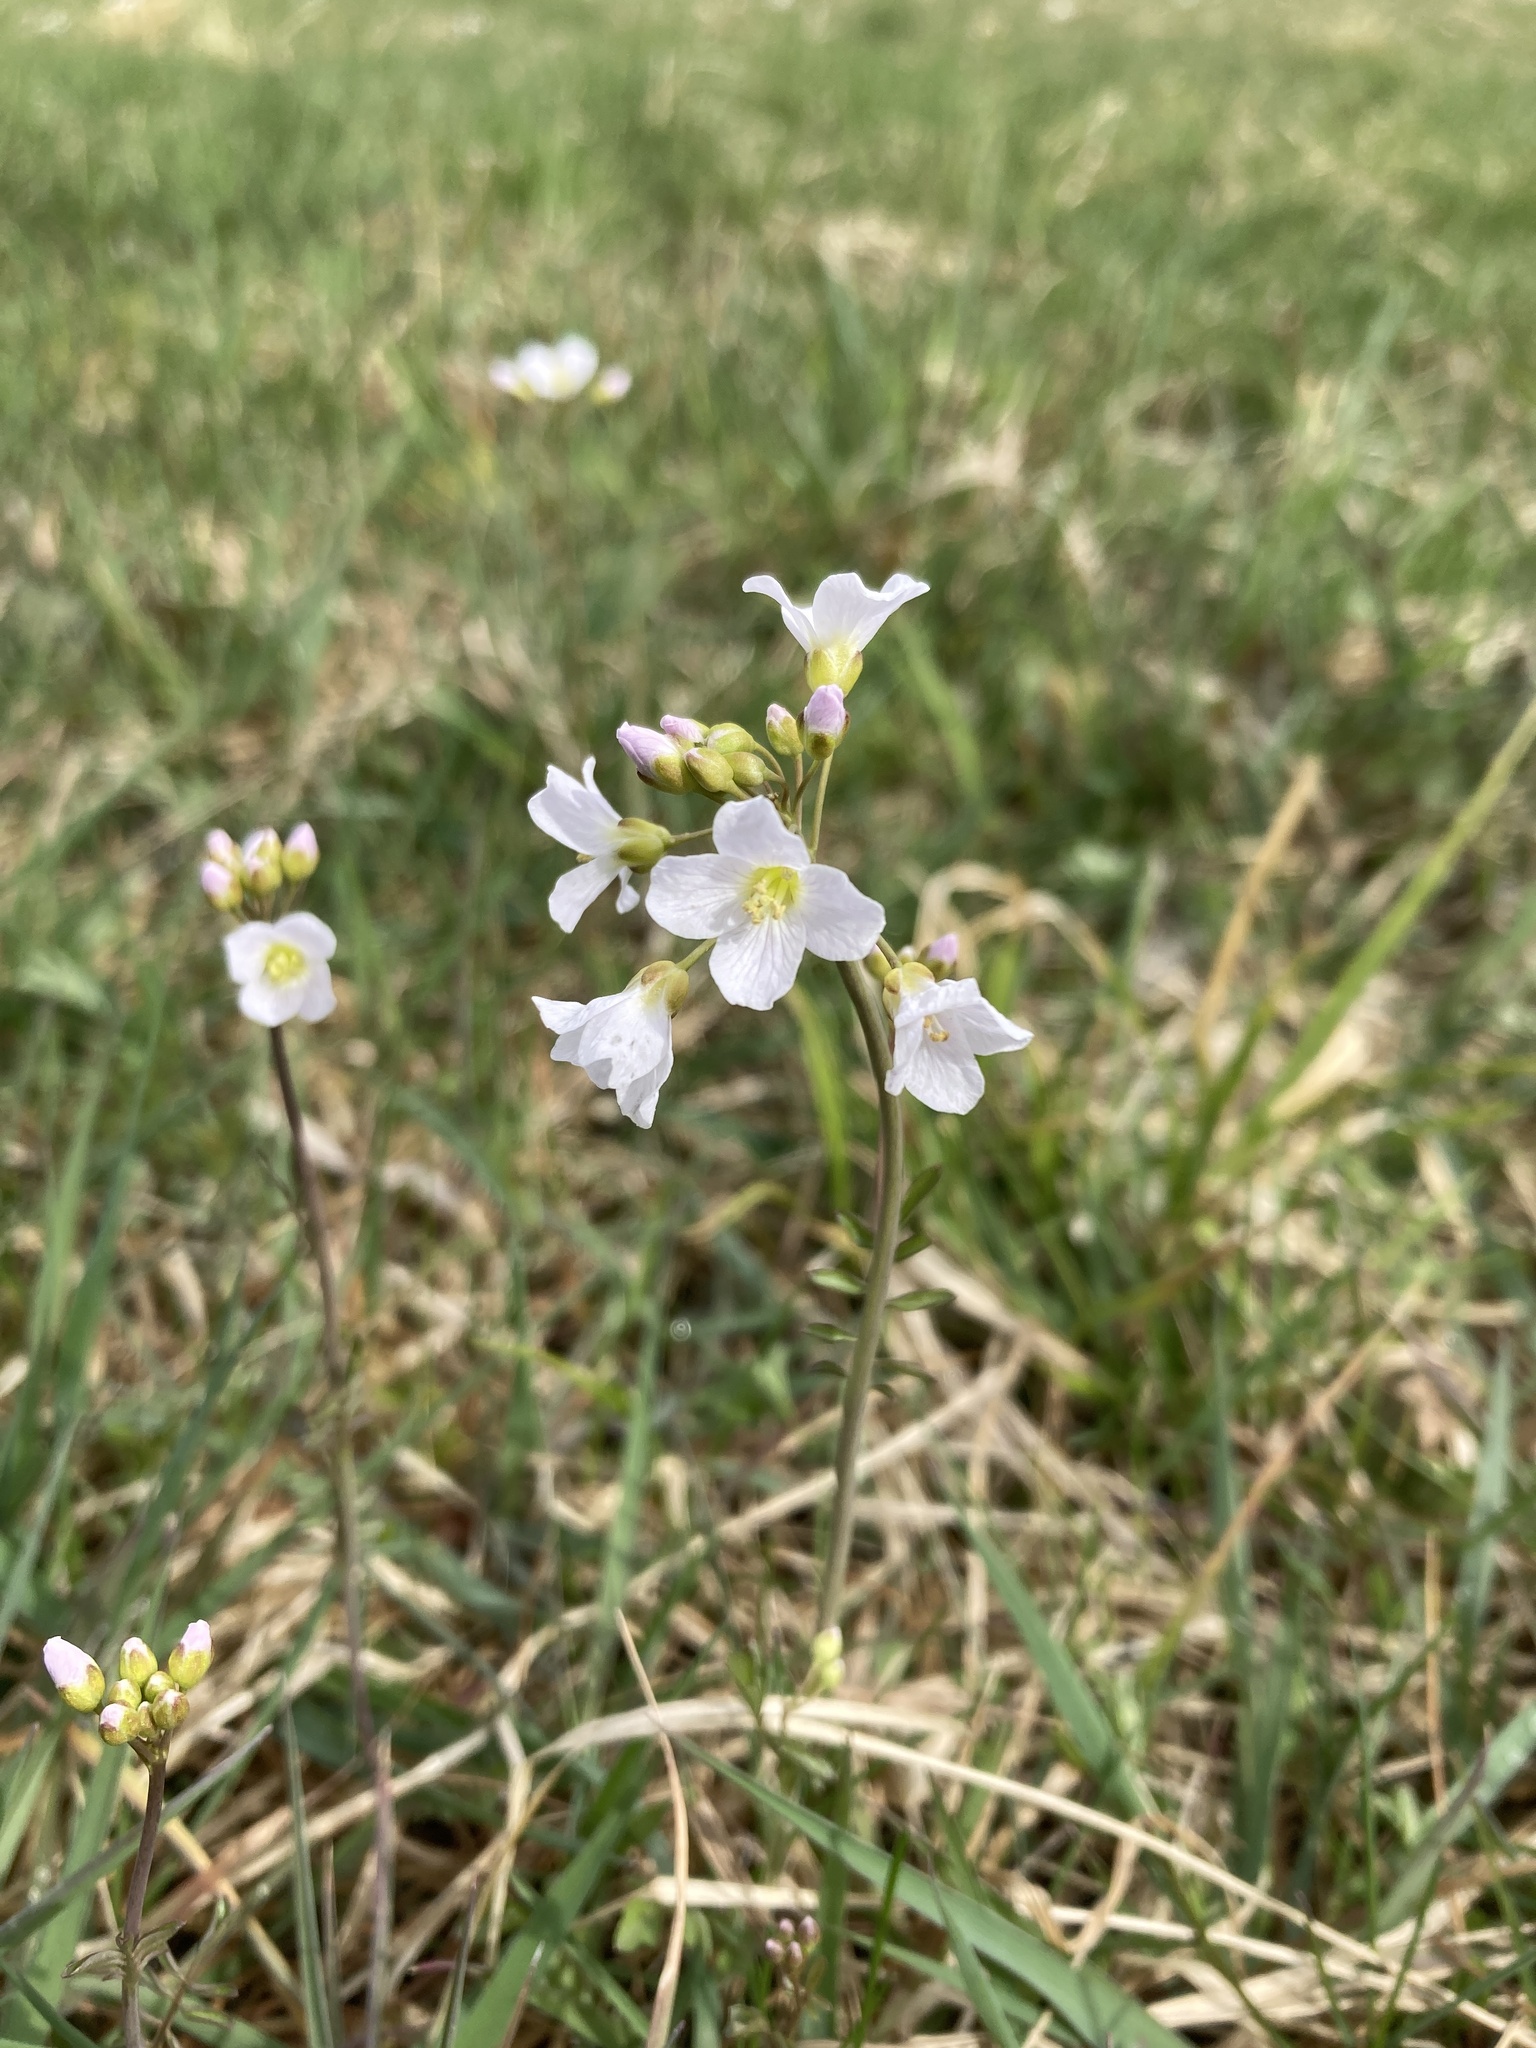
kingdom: Plantae
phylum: Tracheophyta
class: Magnoliopsida
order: Brassicales
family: Brassicaceae
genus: Cardamine
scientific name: Cardamine pratensis
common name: Cuckoo flower
